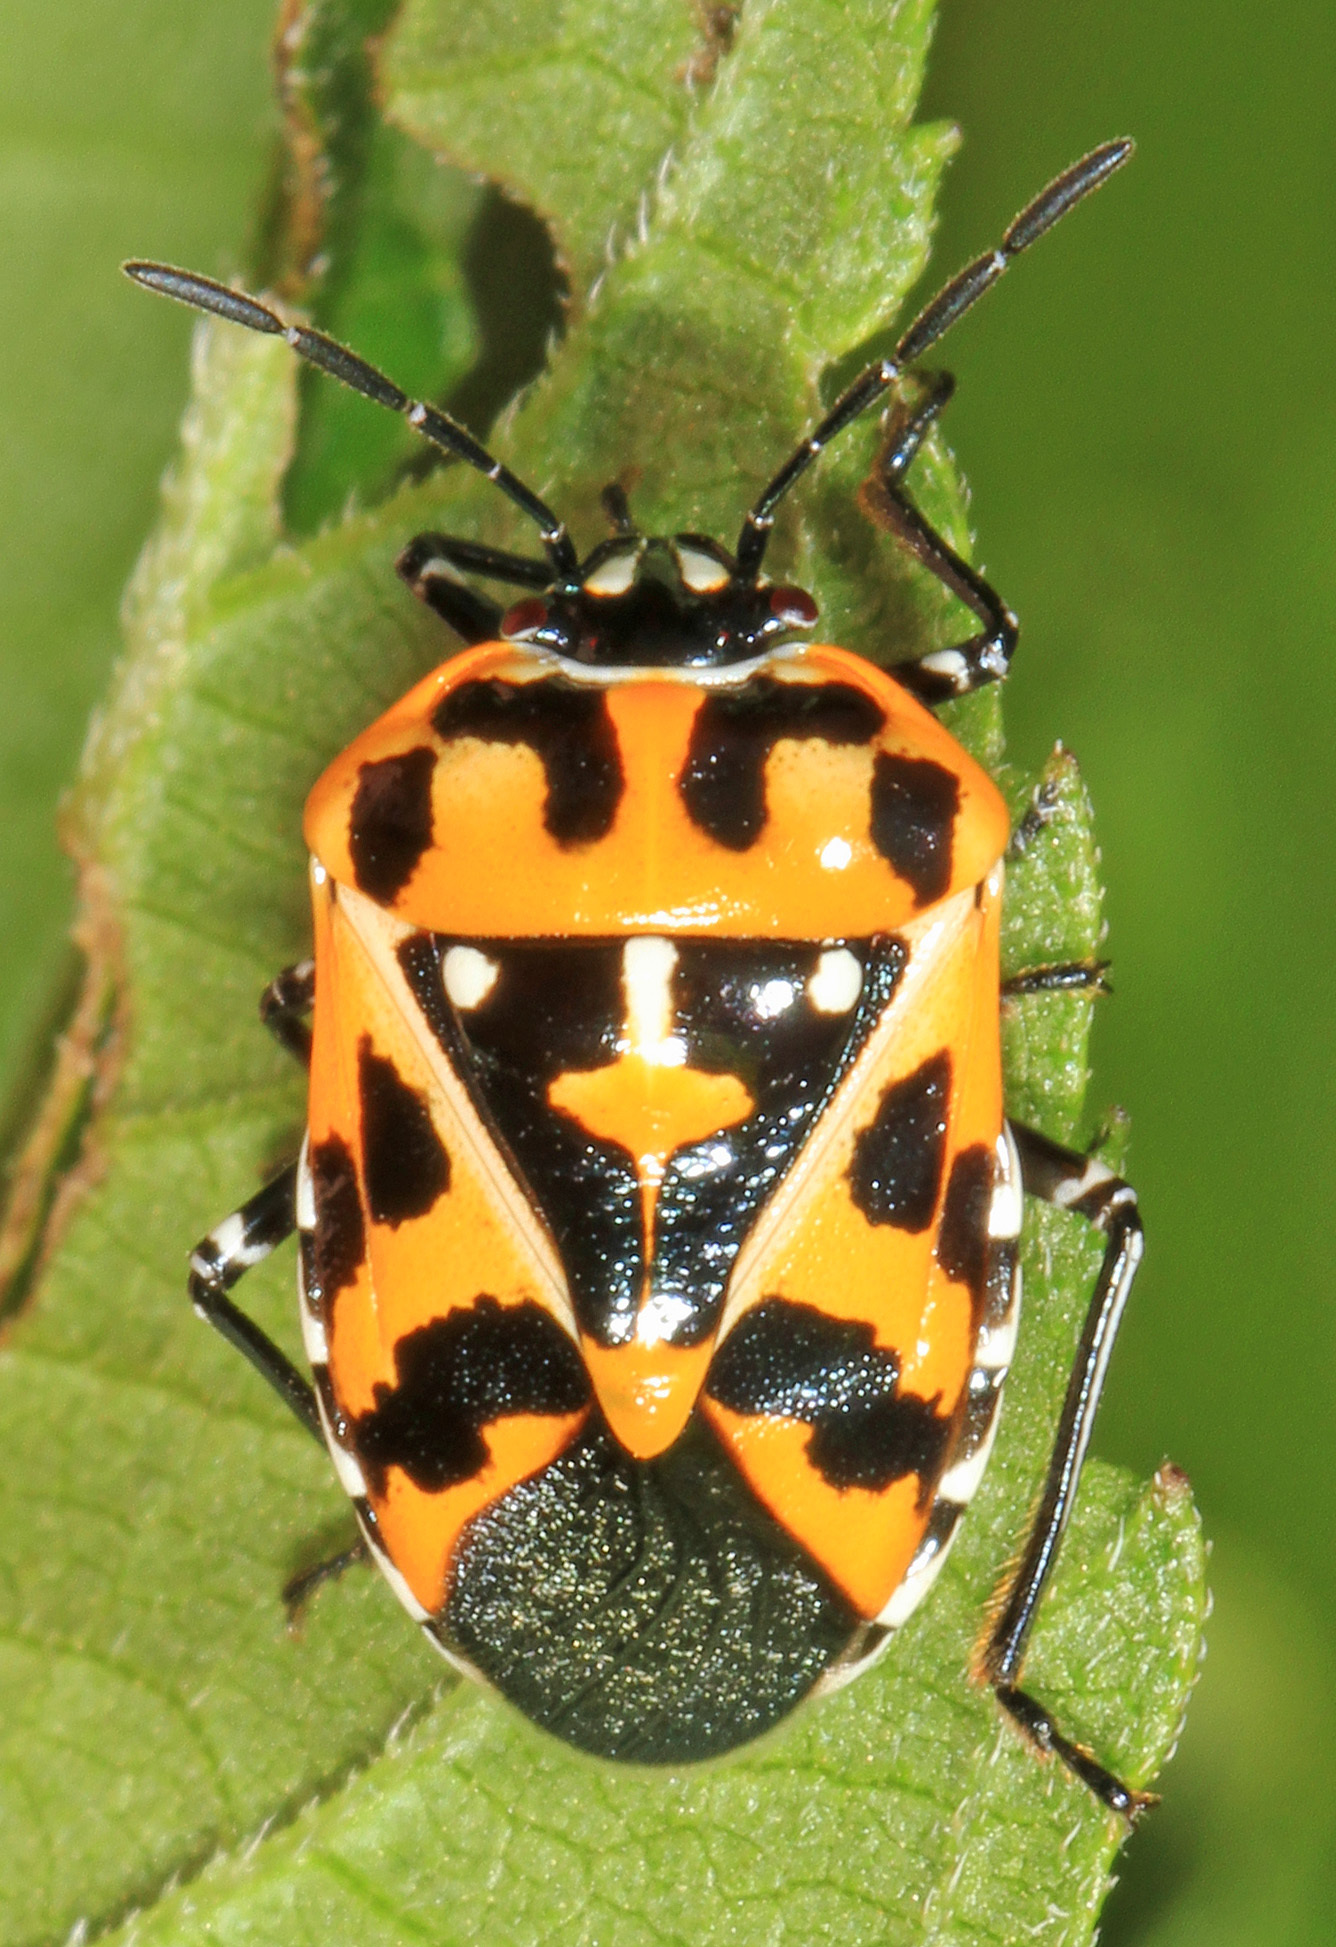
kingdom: Animalia
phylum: Arthropoda
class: Insecta
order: Hemiptera
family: Pentatomidae
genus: Murgantia
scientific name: Murgantia histrionica
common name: Harlequin bug
